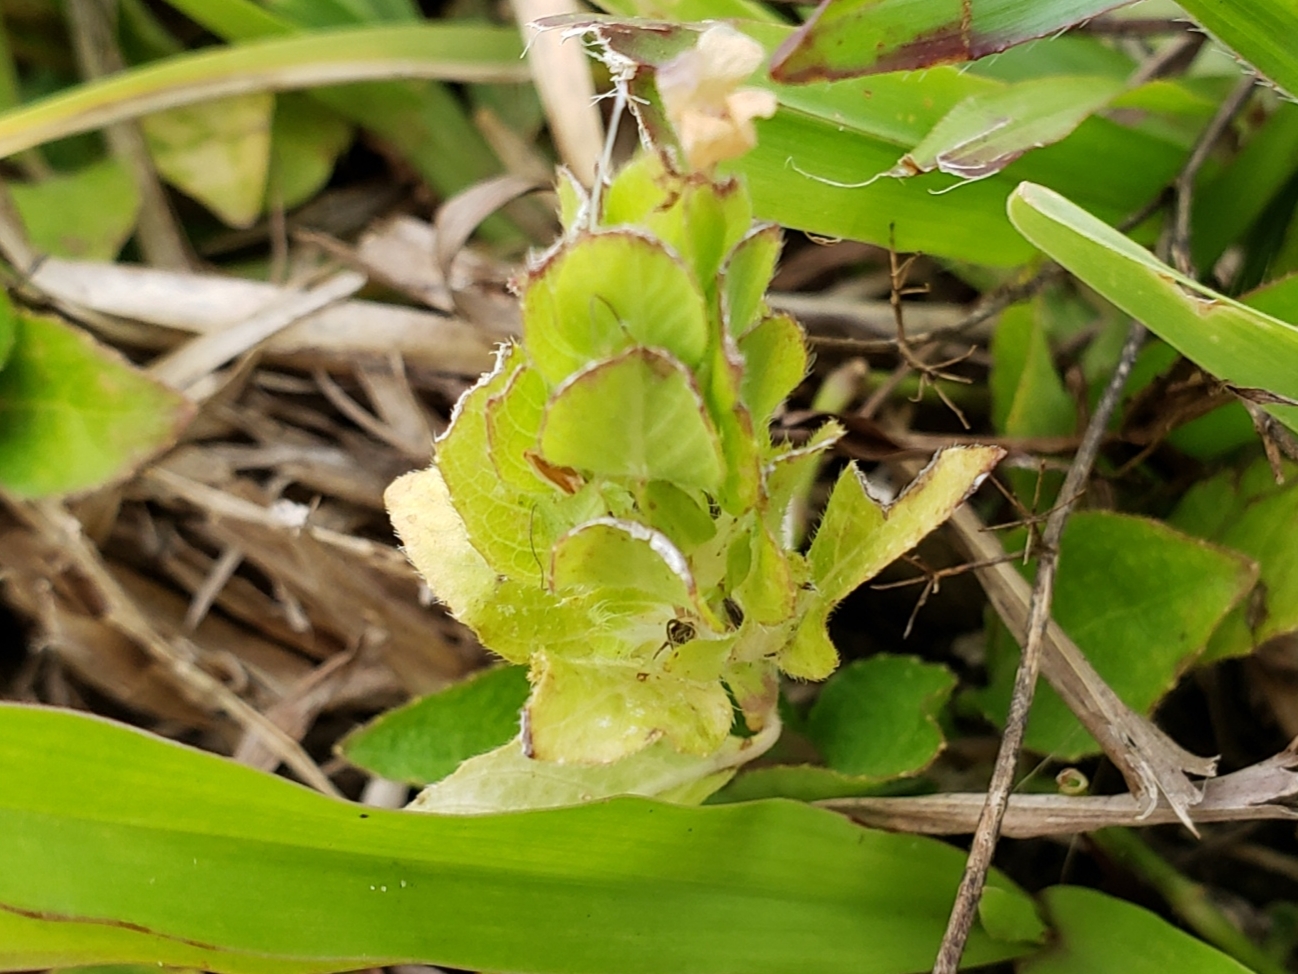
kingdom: Plantae
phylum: Tracheophyta
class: Magnoliopsida
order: Lamiales
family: Acanthaceae
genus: Ruellia
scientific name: Ruellia blechum
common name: Browne's blechum
